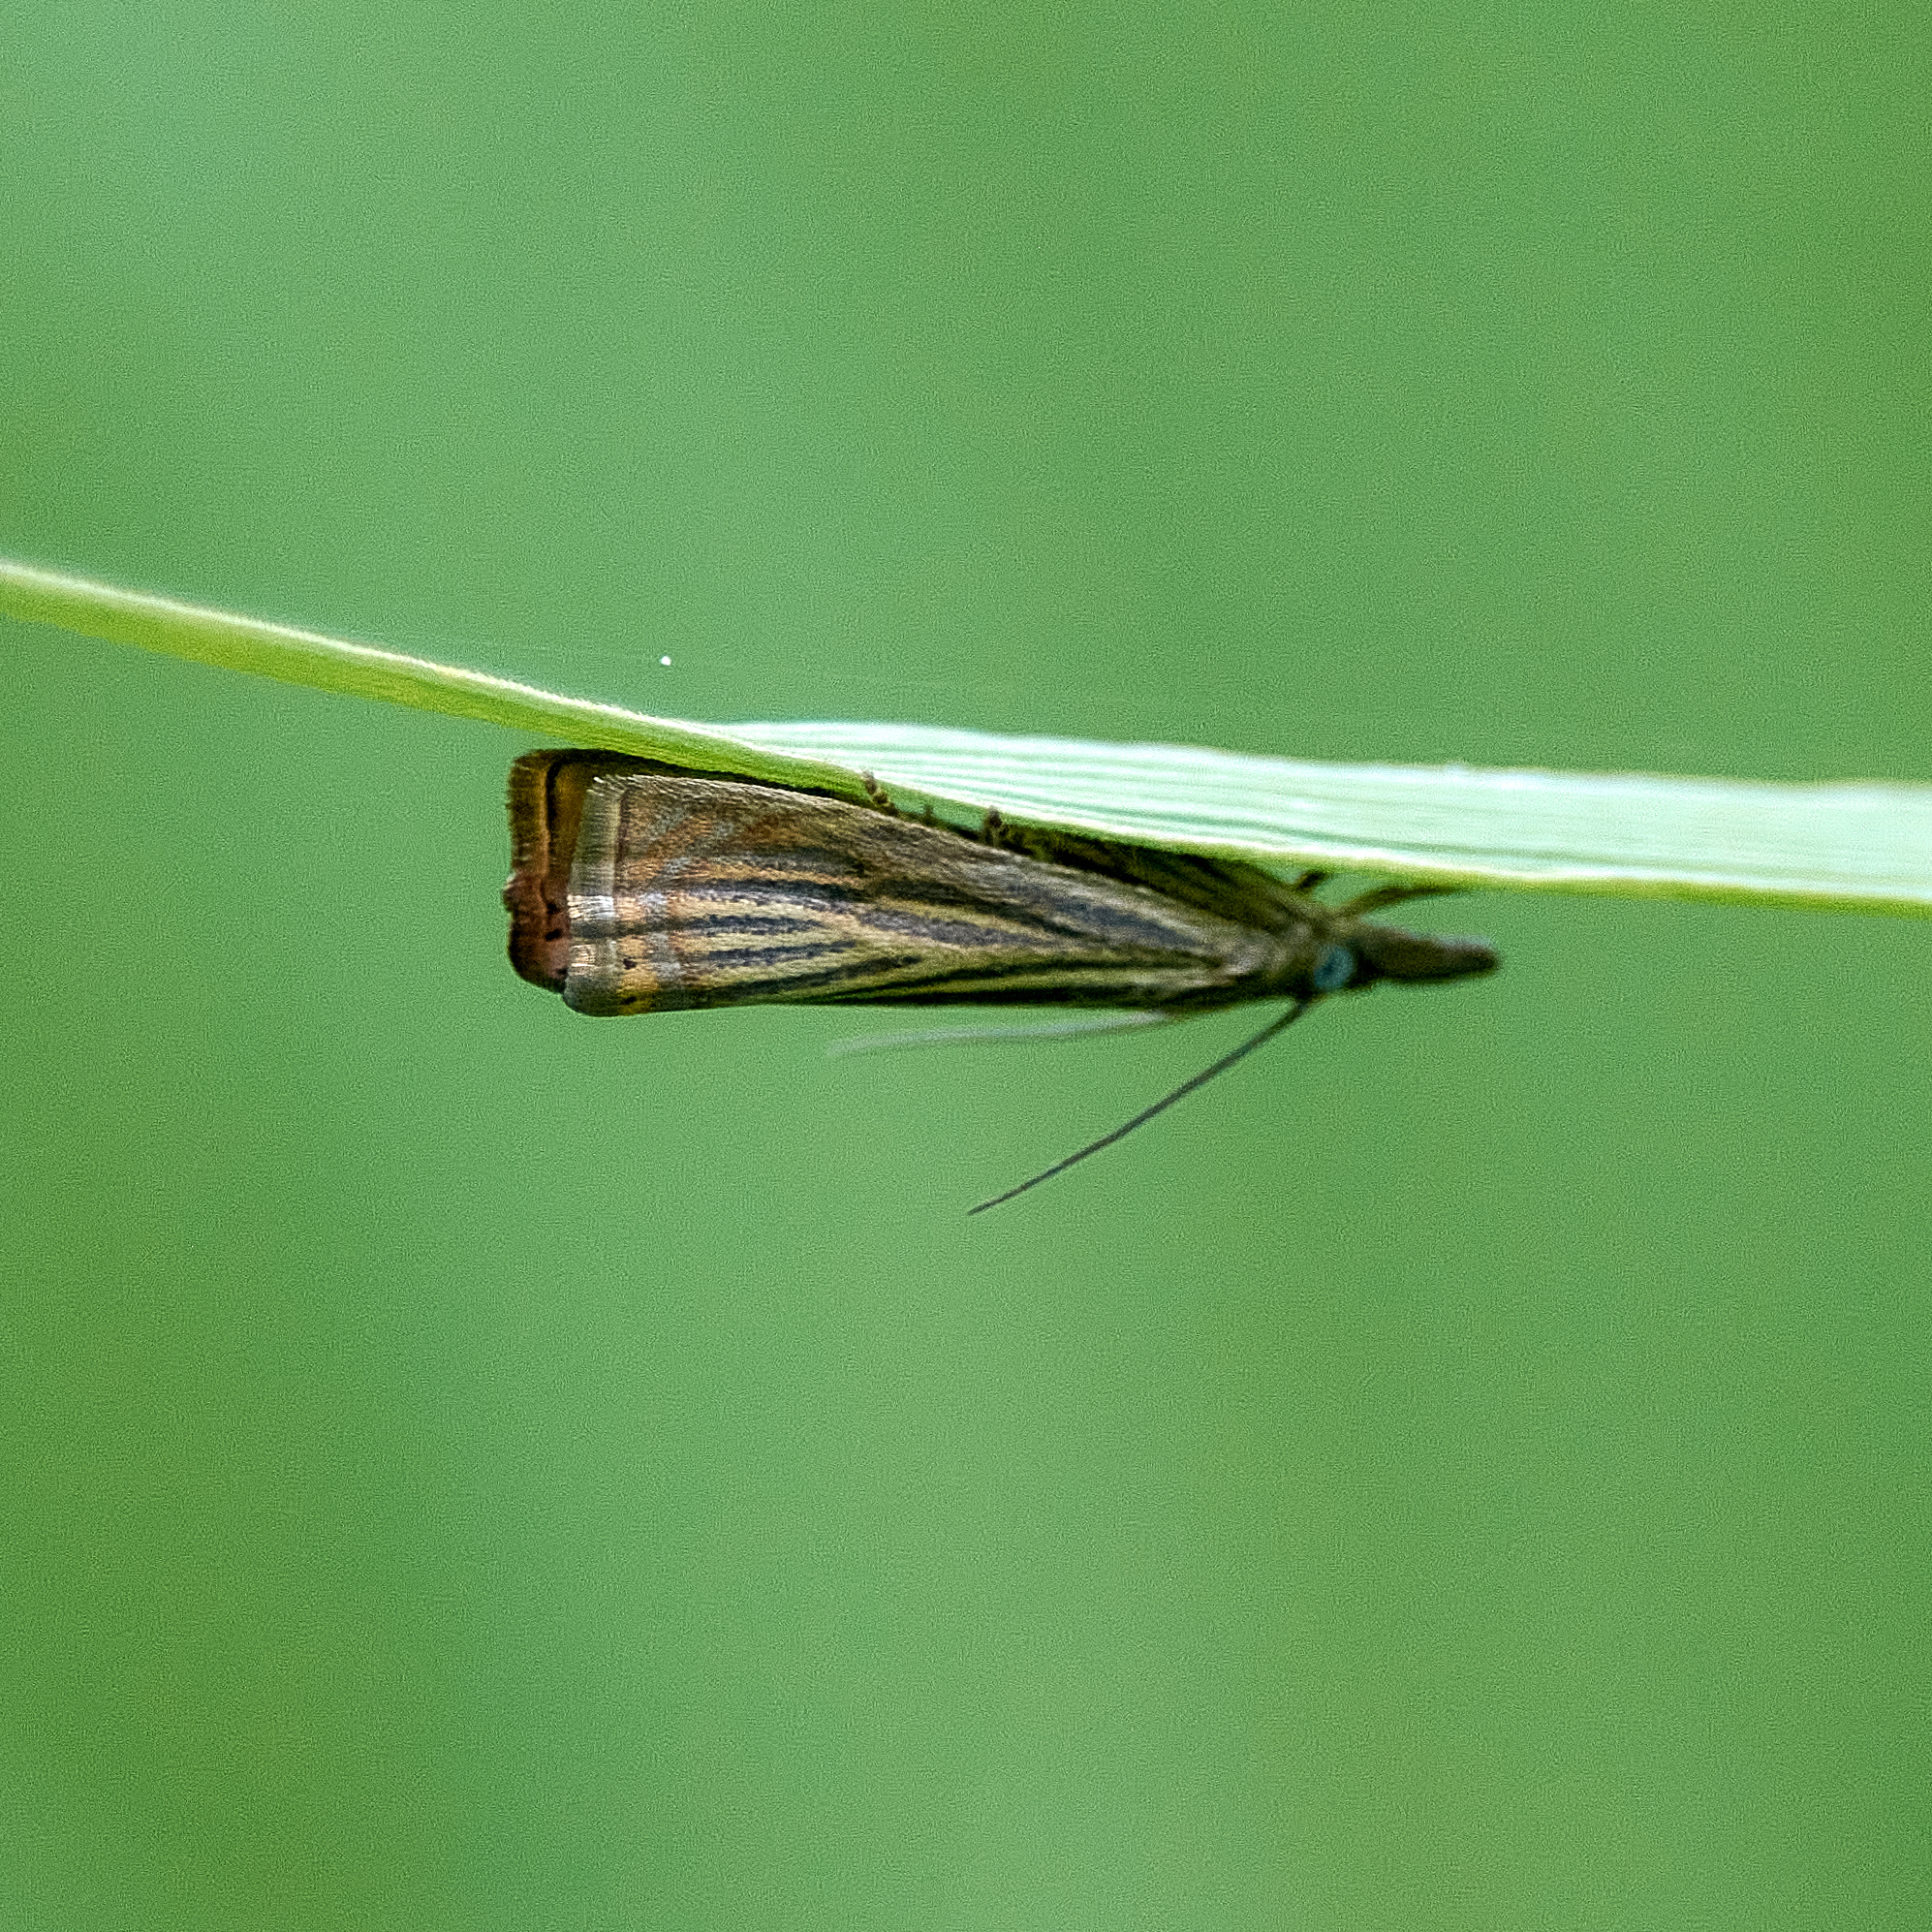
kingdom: Animalia
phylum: Arthropoda
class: Insecta
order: Lepidoptera
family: Crambidae
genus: Chrysoteuchia
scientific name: Chrysoteuchia culmella
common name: Garden grass-veneer
